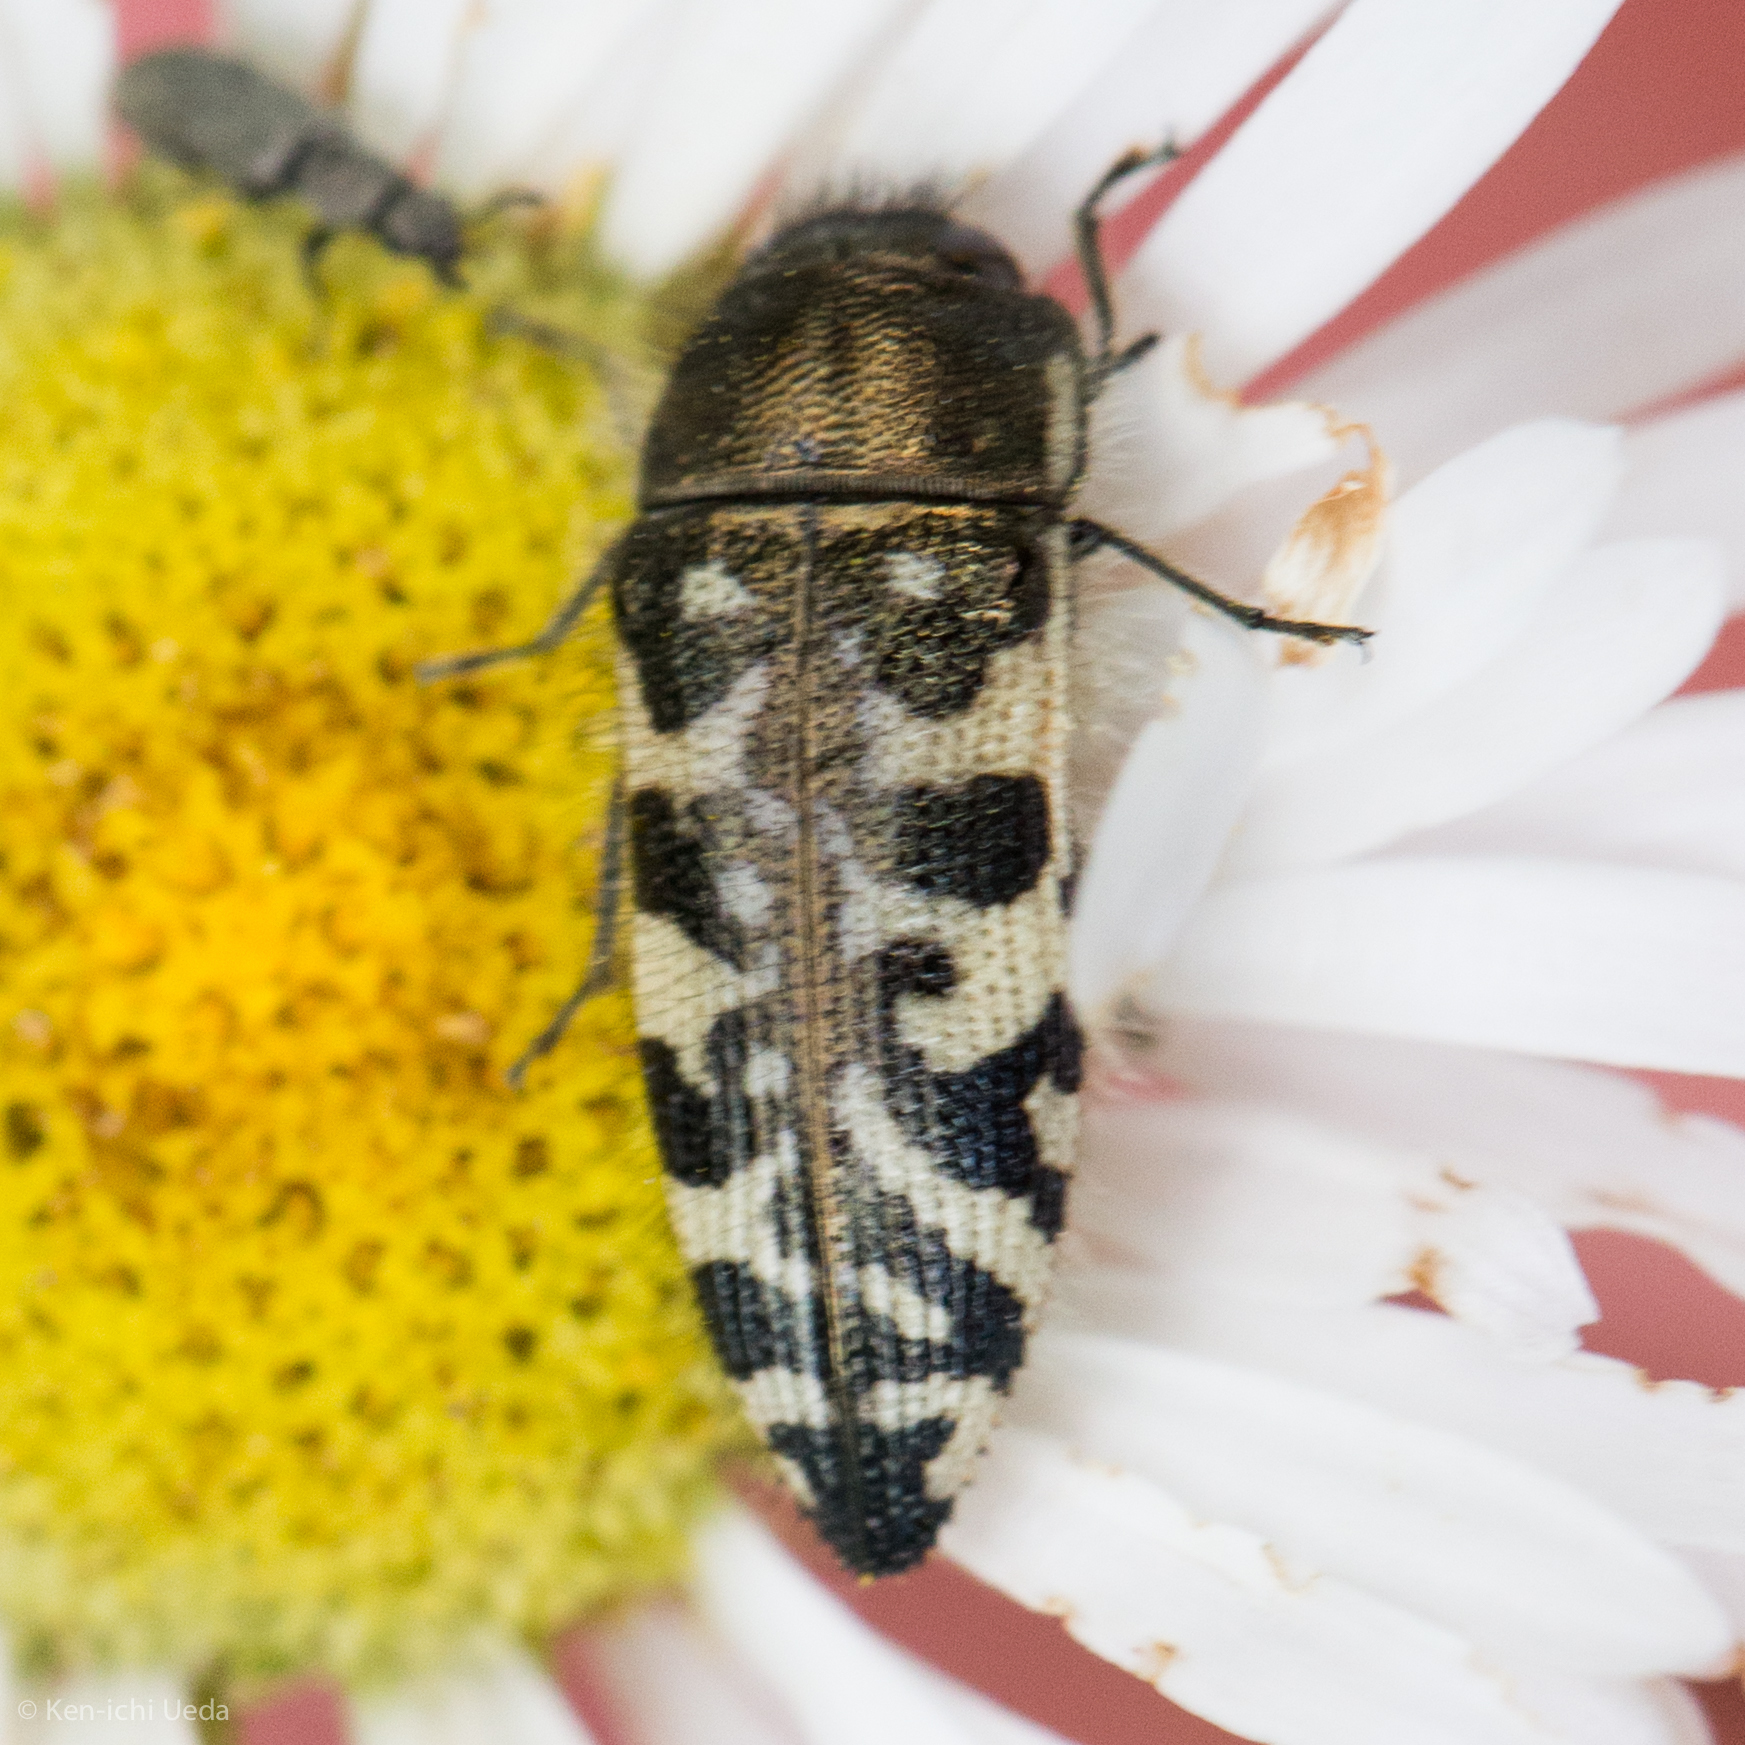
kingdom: Animalia
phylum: Arthropoda
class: Insecta
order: Coleoptera
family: Buprestidae
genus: Acmaeodera
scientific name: Acmaeodera decipiens
